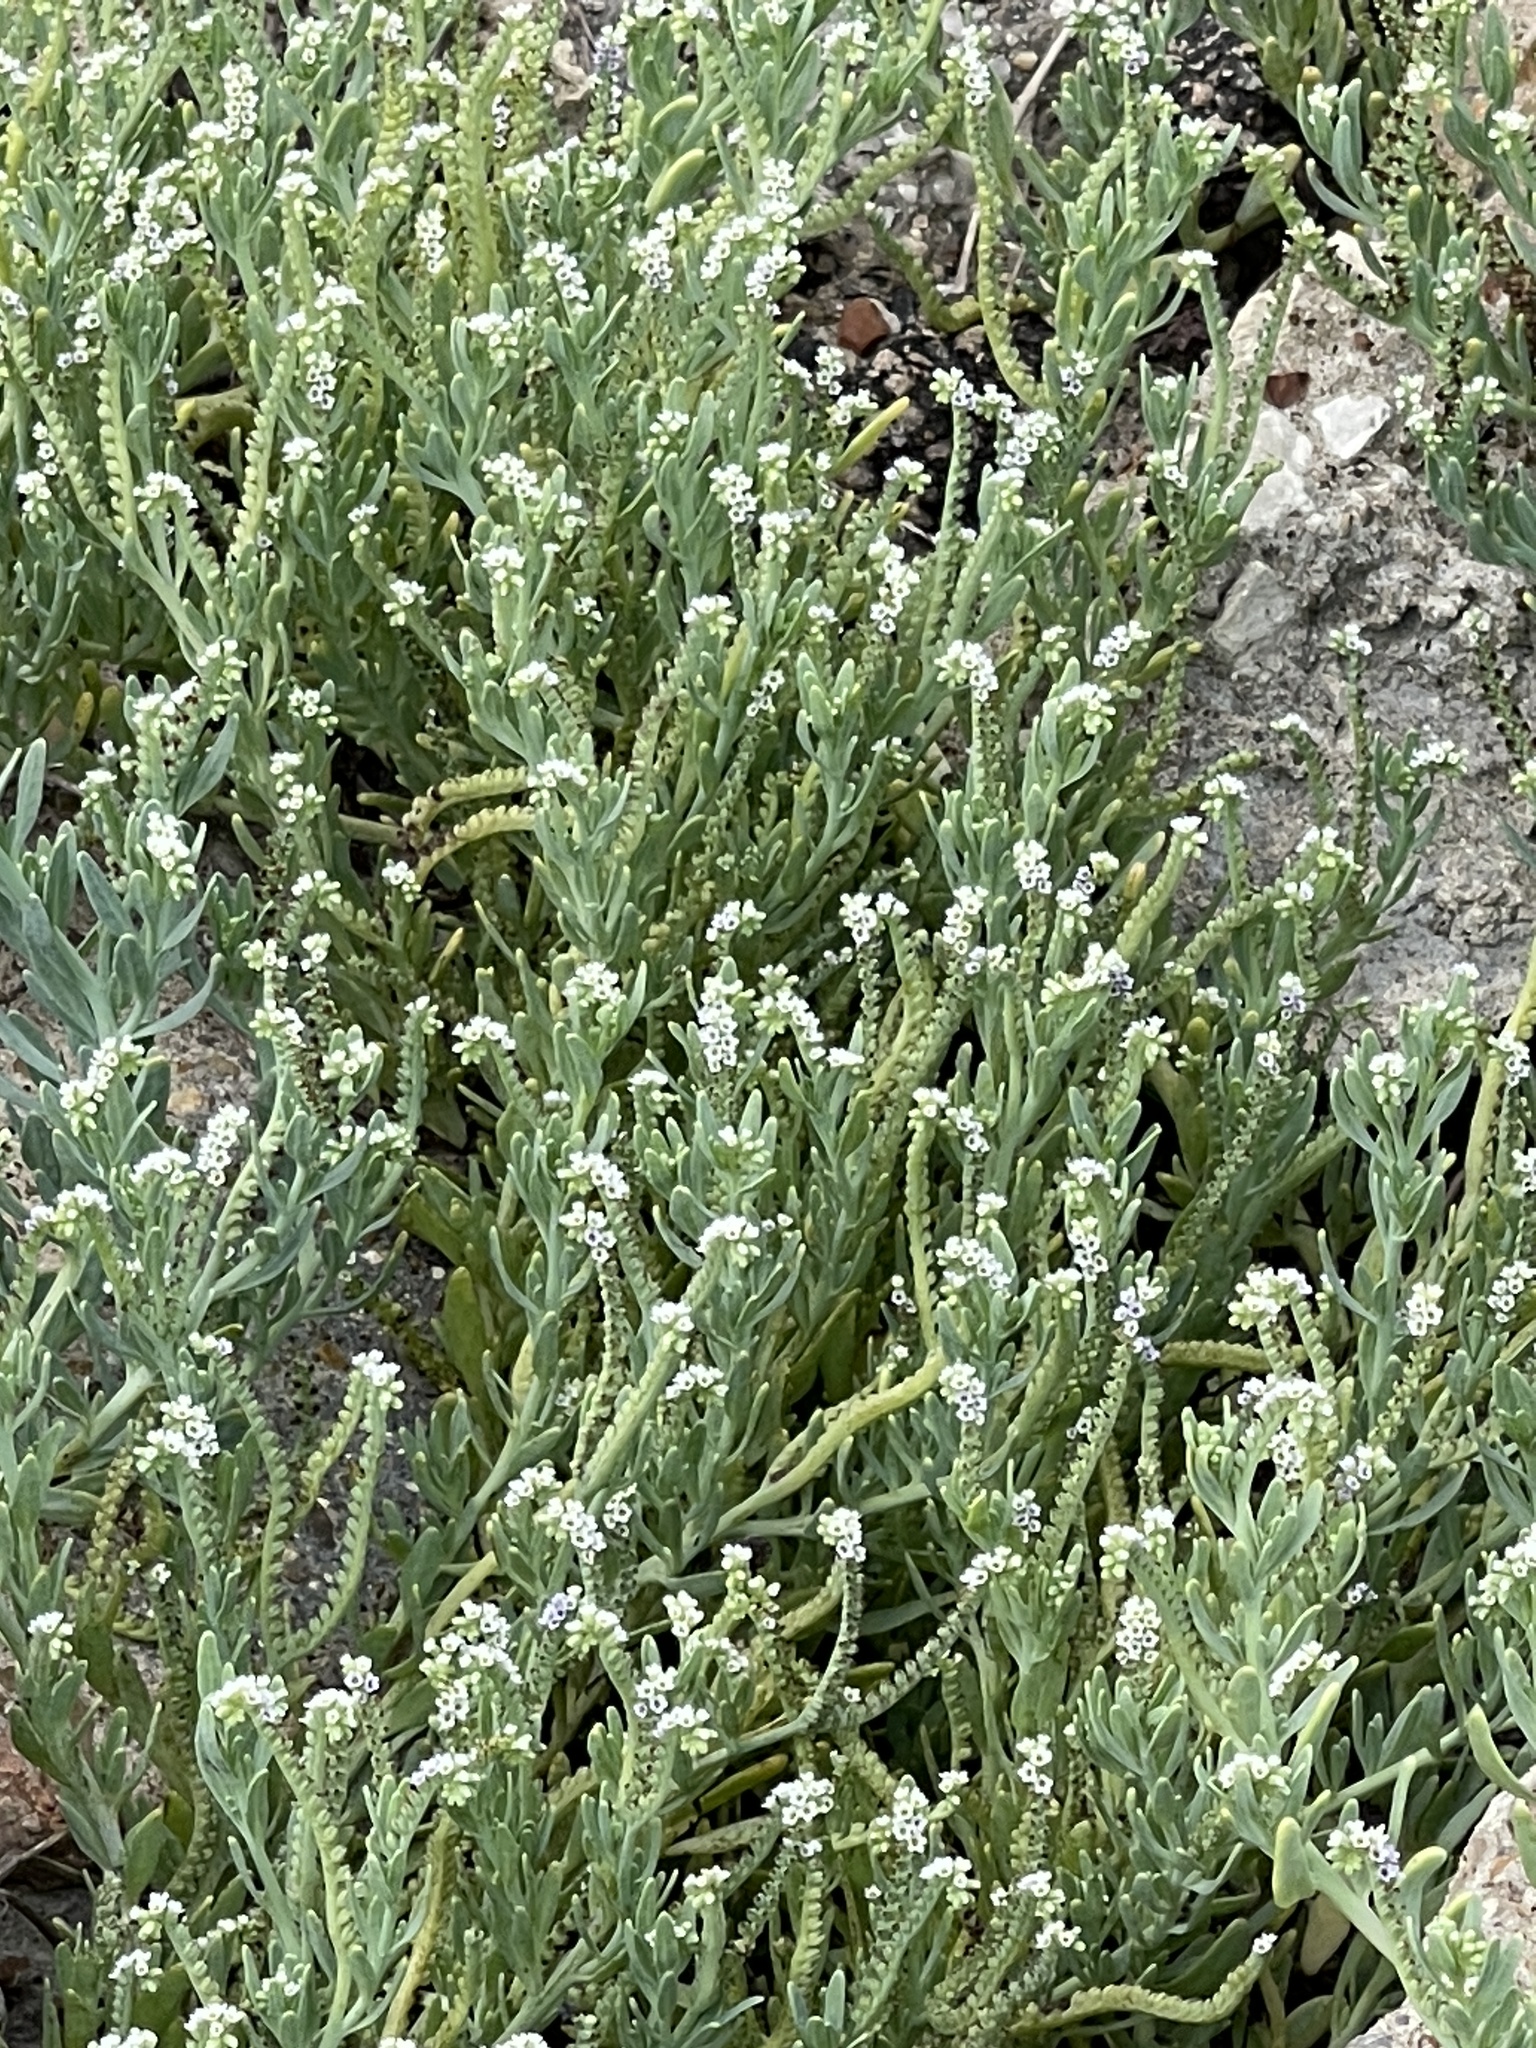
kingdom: Plantae
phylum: Tracheophyta
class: Magnoliopsida
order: Boraginales
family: Heliotropiaceae
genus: Heliotropium
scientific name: Heliotropium curassavicum
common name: Seaside heliotrope
